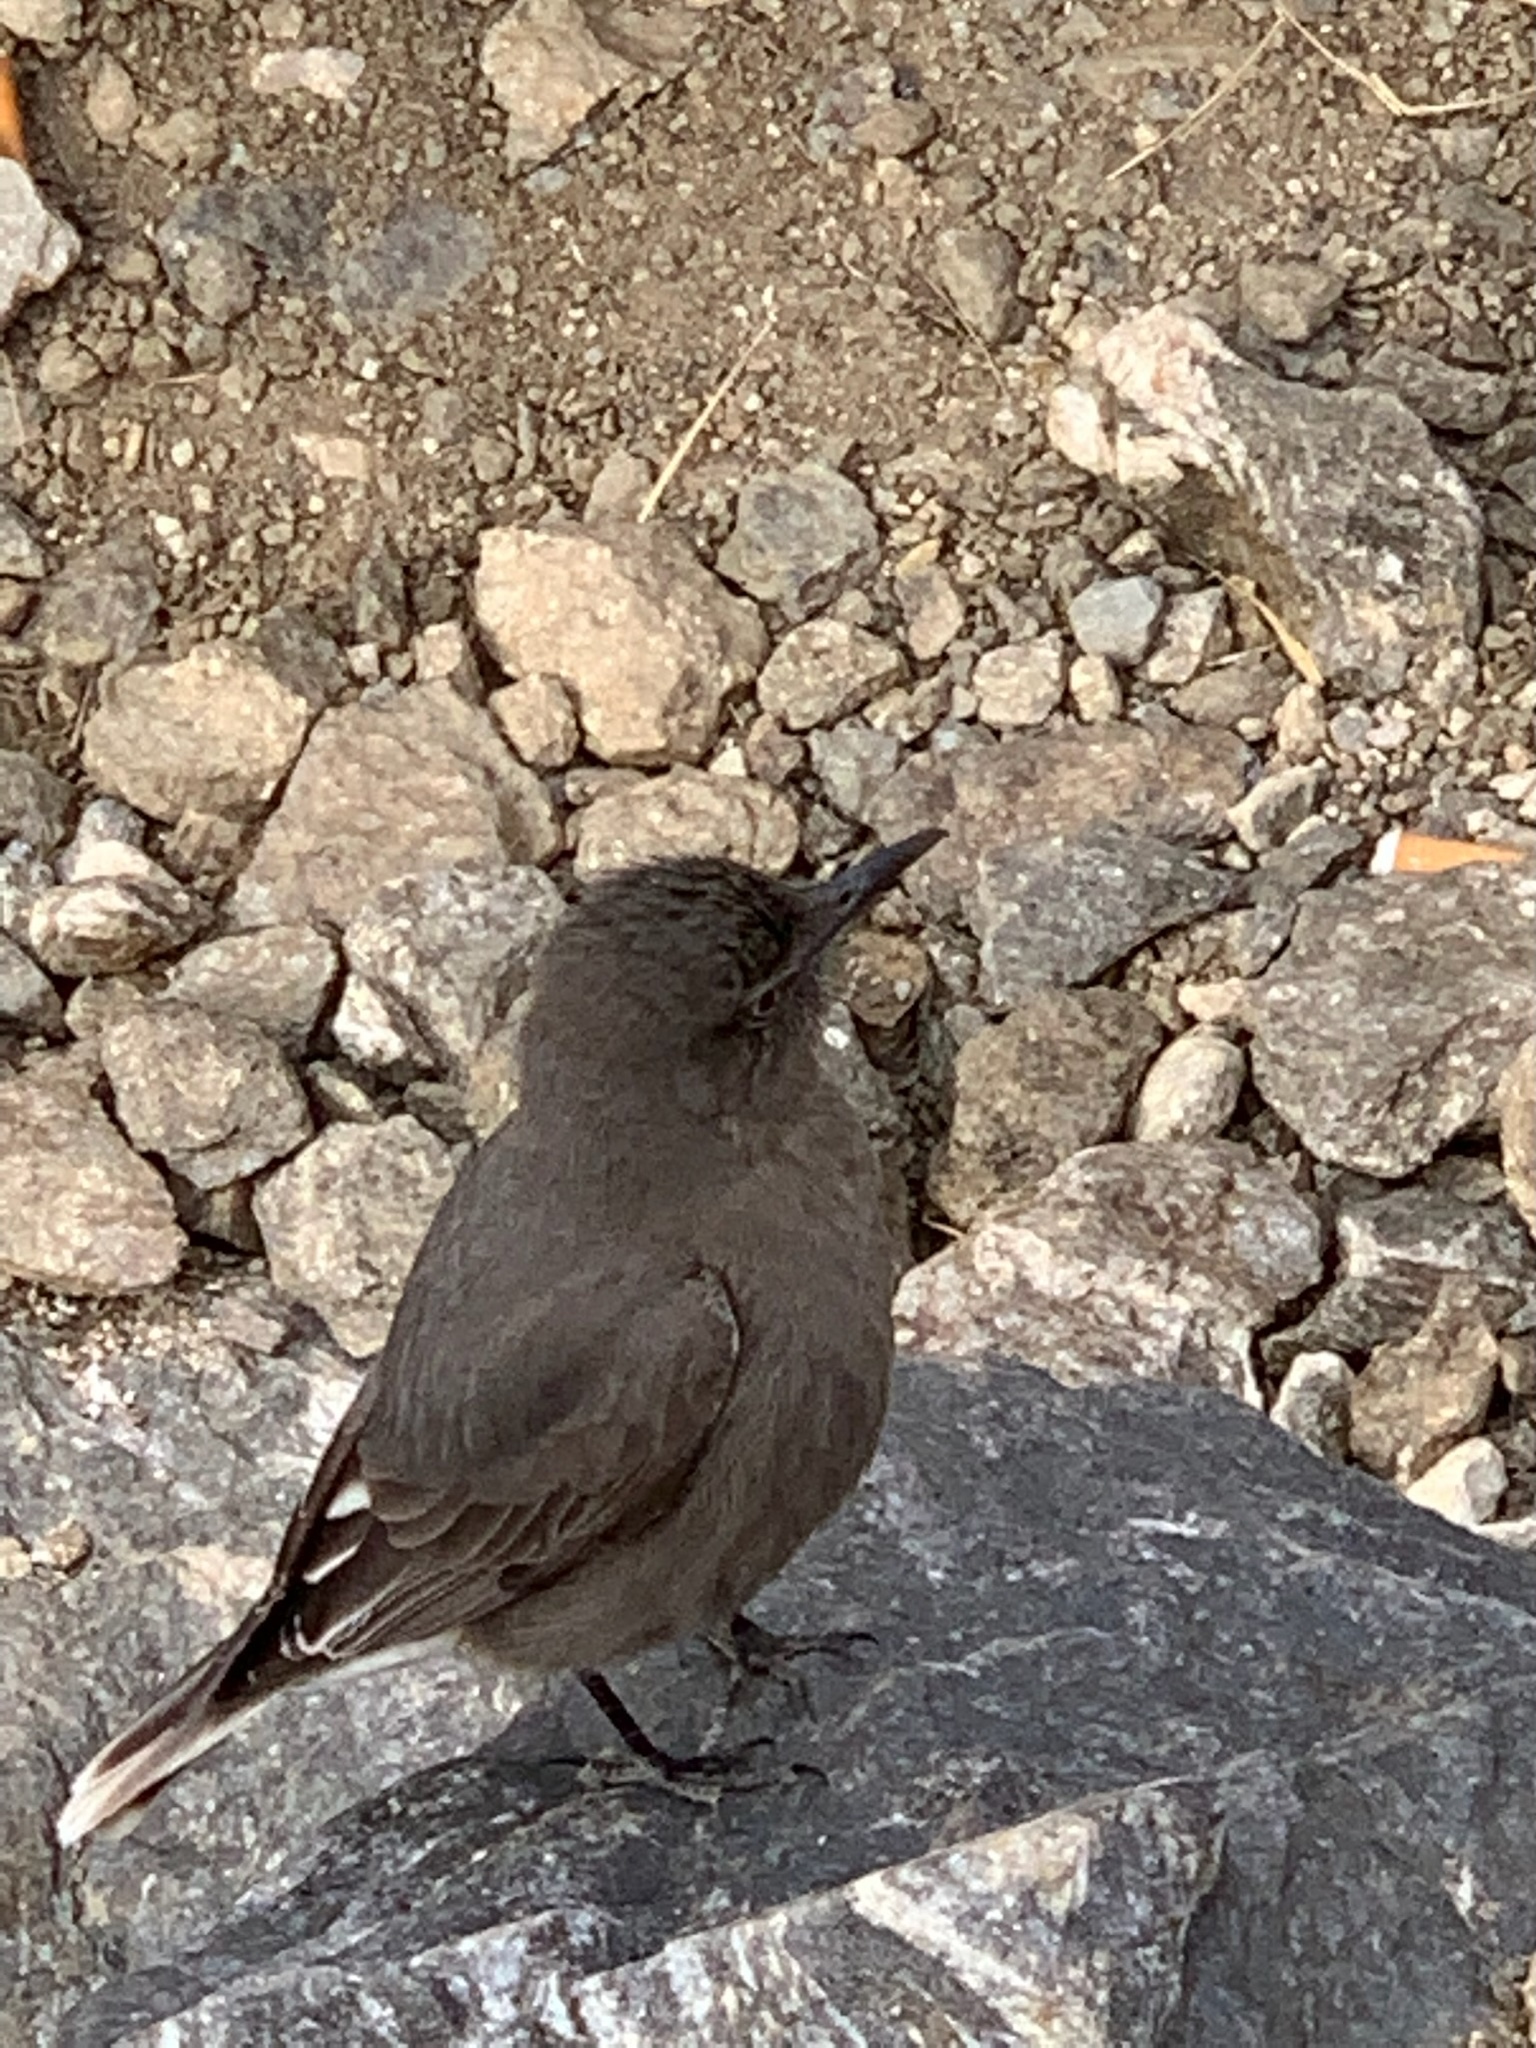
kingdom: Animalia
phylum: Chordata
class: Aves
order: Passeriformes
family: Tyrannidae
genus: Agriornis
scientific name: Agriornis montanus
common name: Black-billed shrike-tyrant
